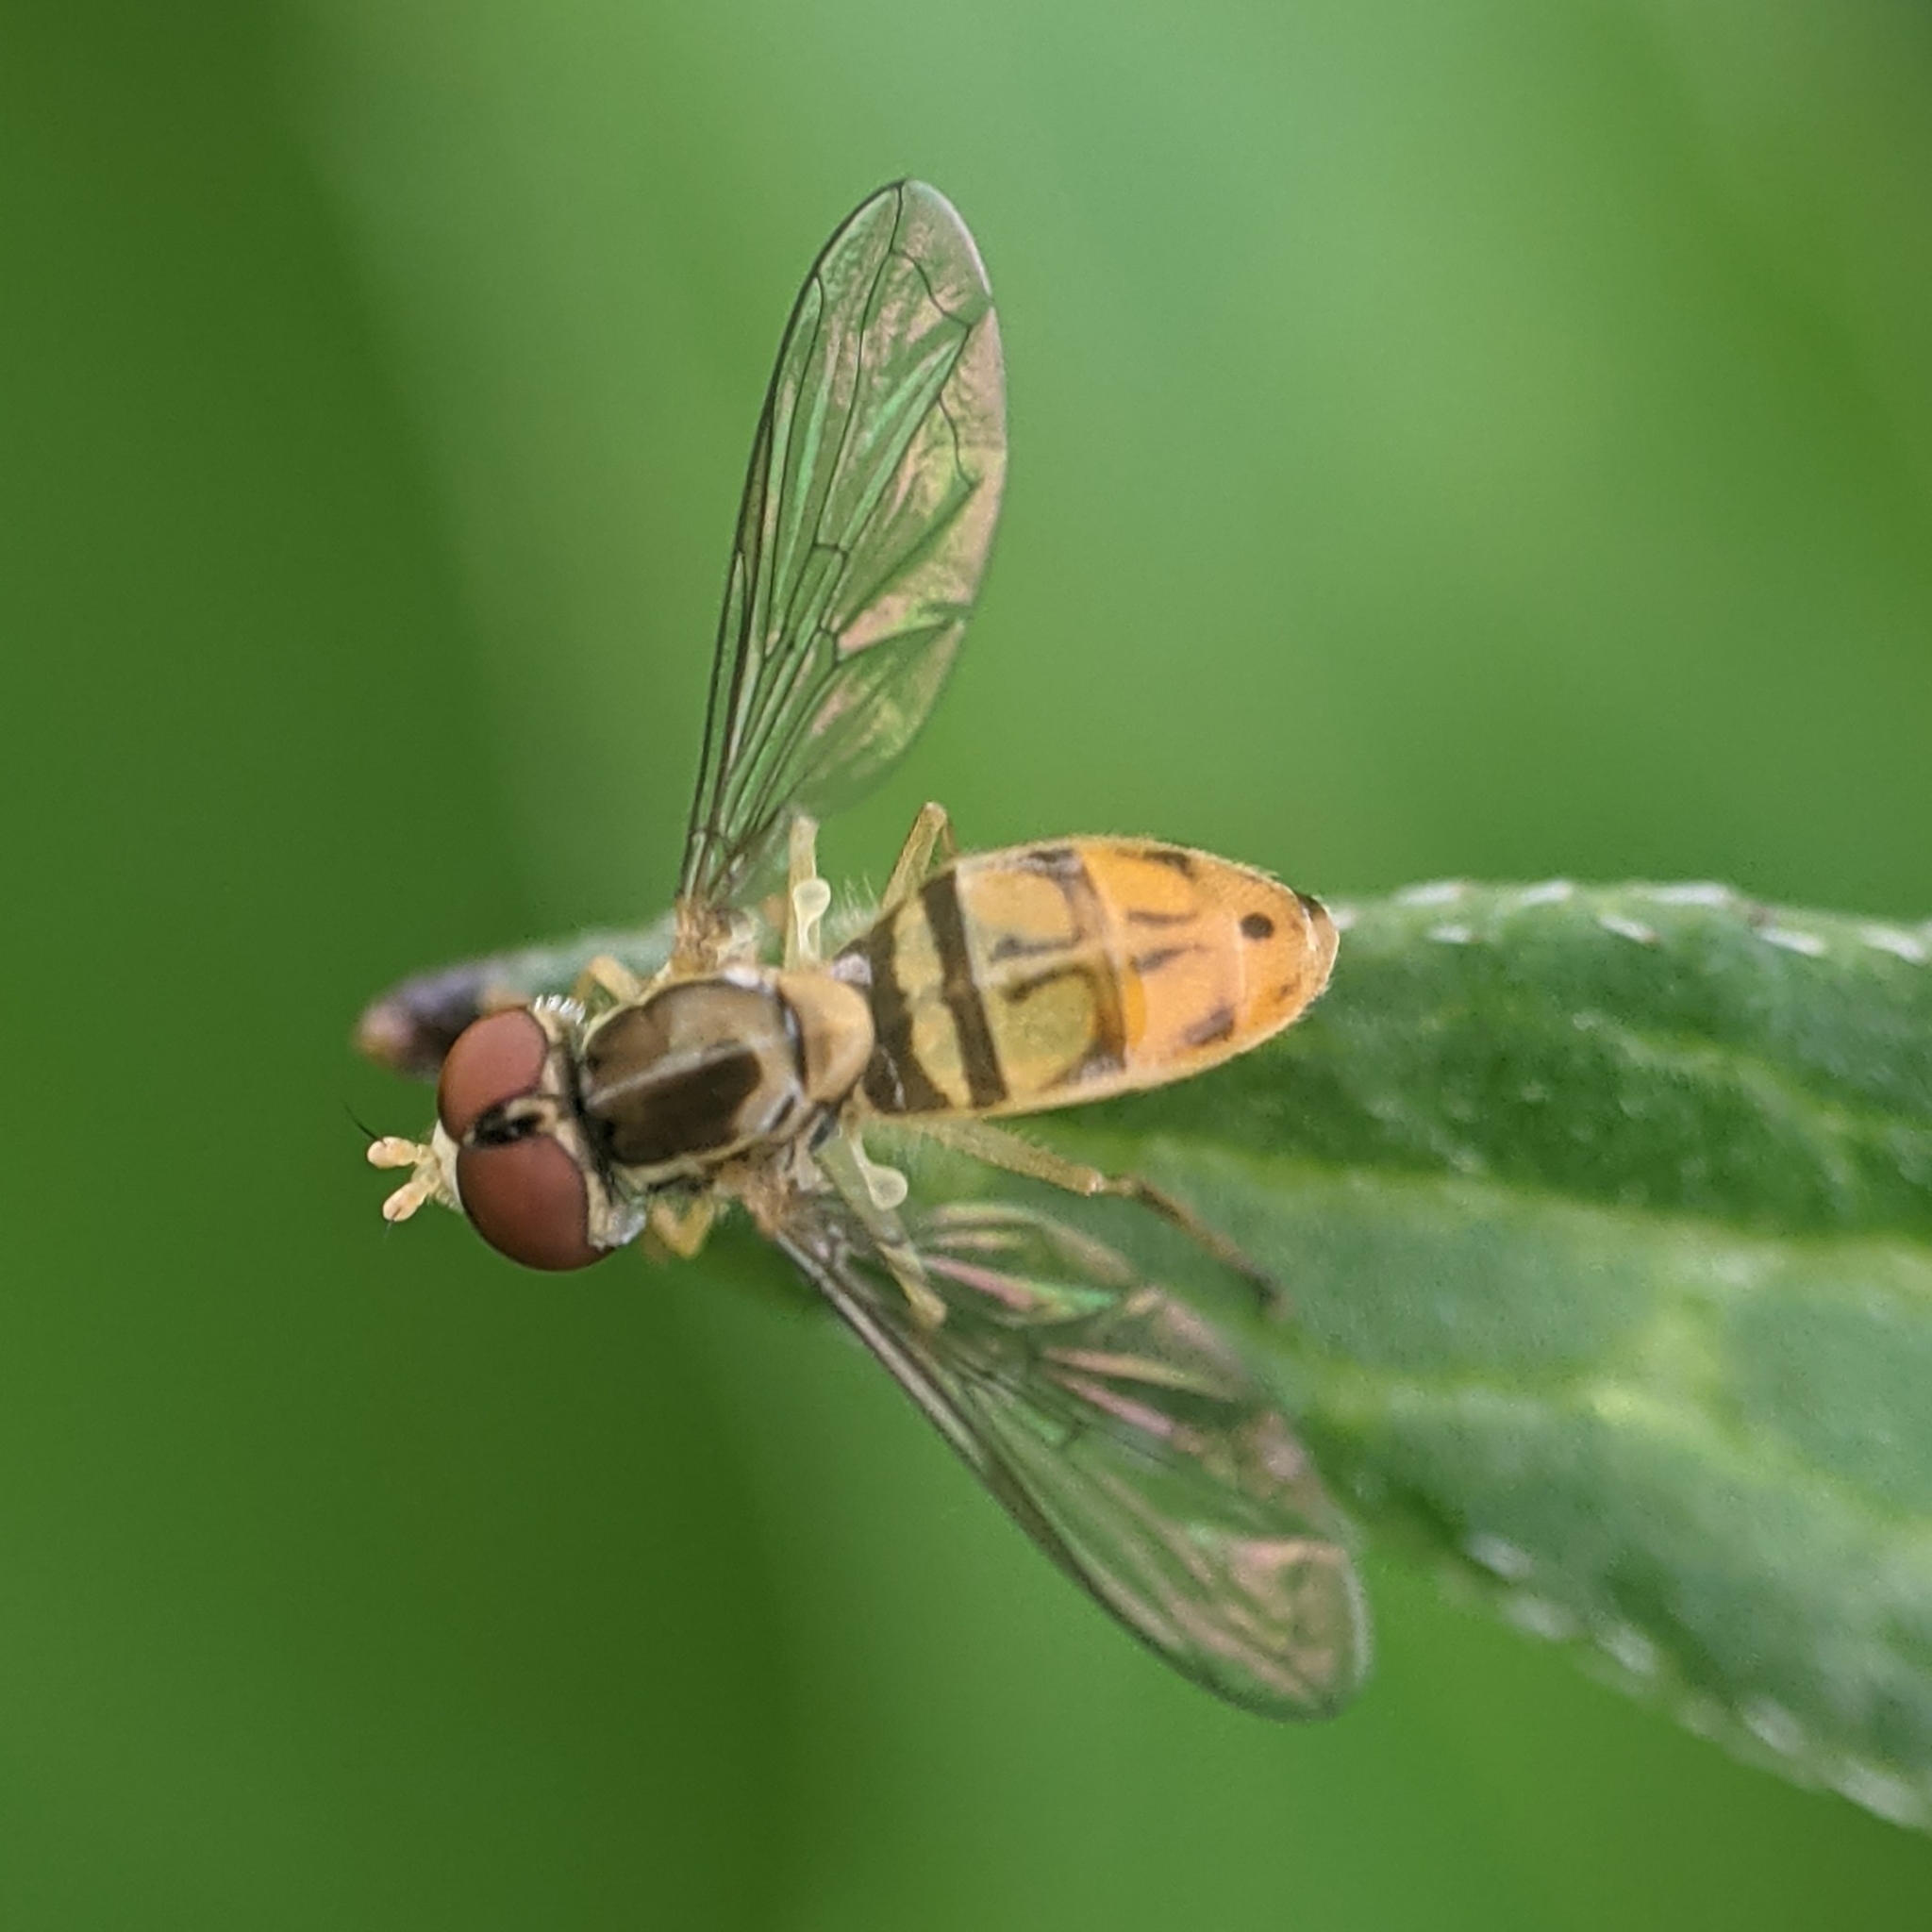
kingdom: Animalia
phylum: Arthropoda
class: Insecta
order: Diptera
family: Syrphidae
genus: Toxomerus
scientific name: Toxomerus marginatus
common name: Syrphid fly
